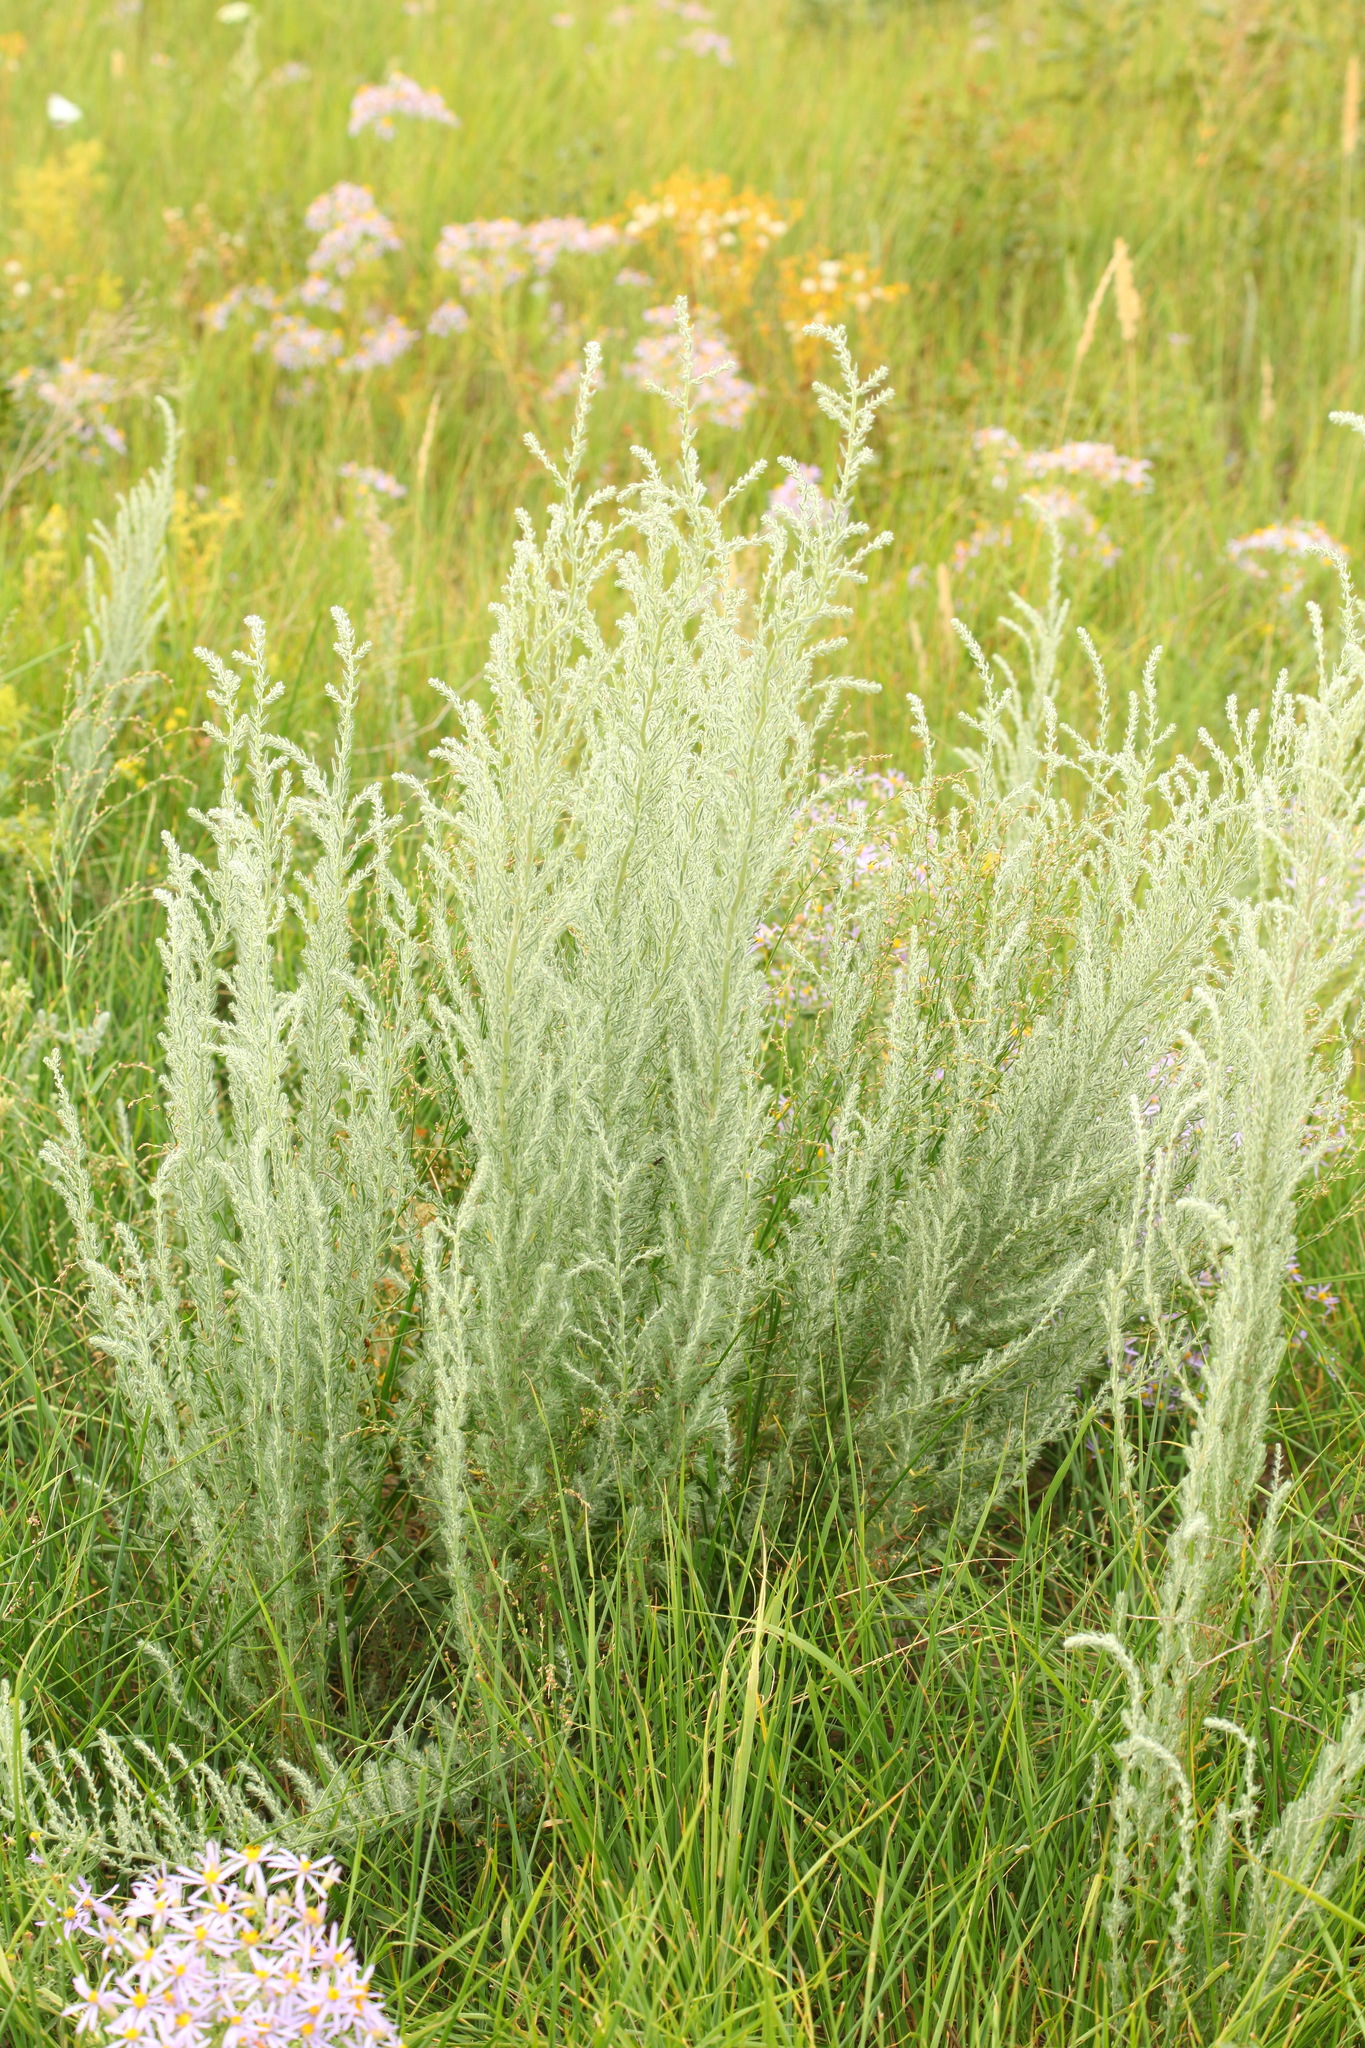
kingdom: Plantae
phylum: Tracheophyta
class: Magnoliopsida
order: Caryophyllales
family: Amaranthaceae
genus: Sedobassia
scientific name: Sedobassia sedoides
